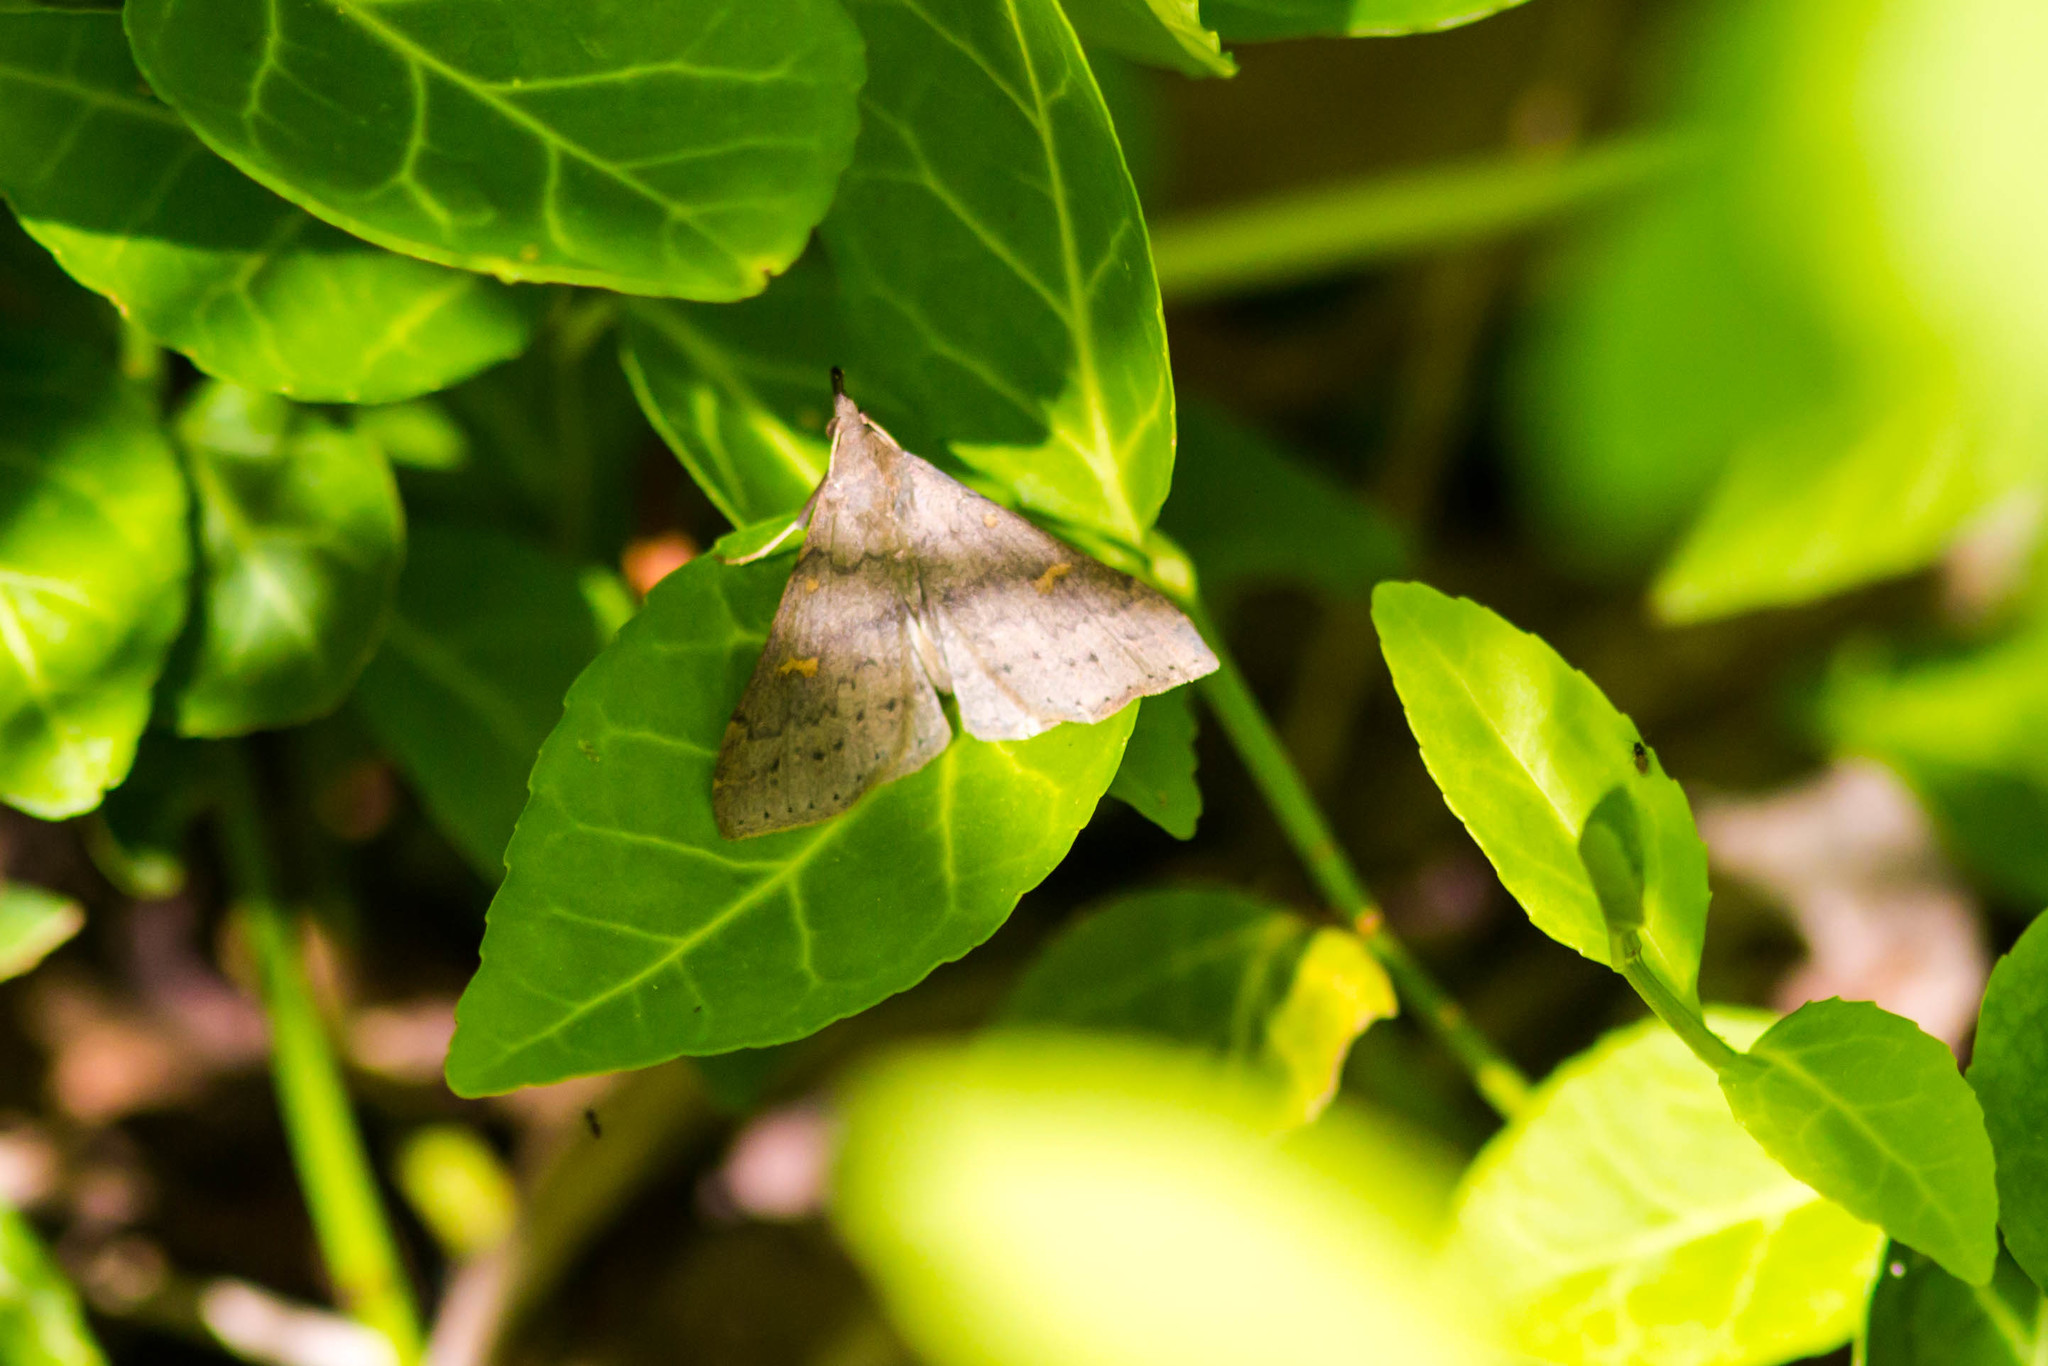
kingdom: Animalia
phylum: Arthropoda
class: Insecta
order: Lepidoptera
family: Erebidae
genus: Renia
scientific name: Renia salusalis
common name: Dotted renia moth
